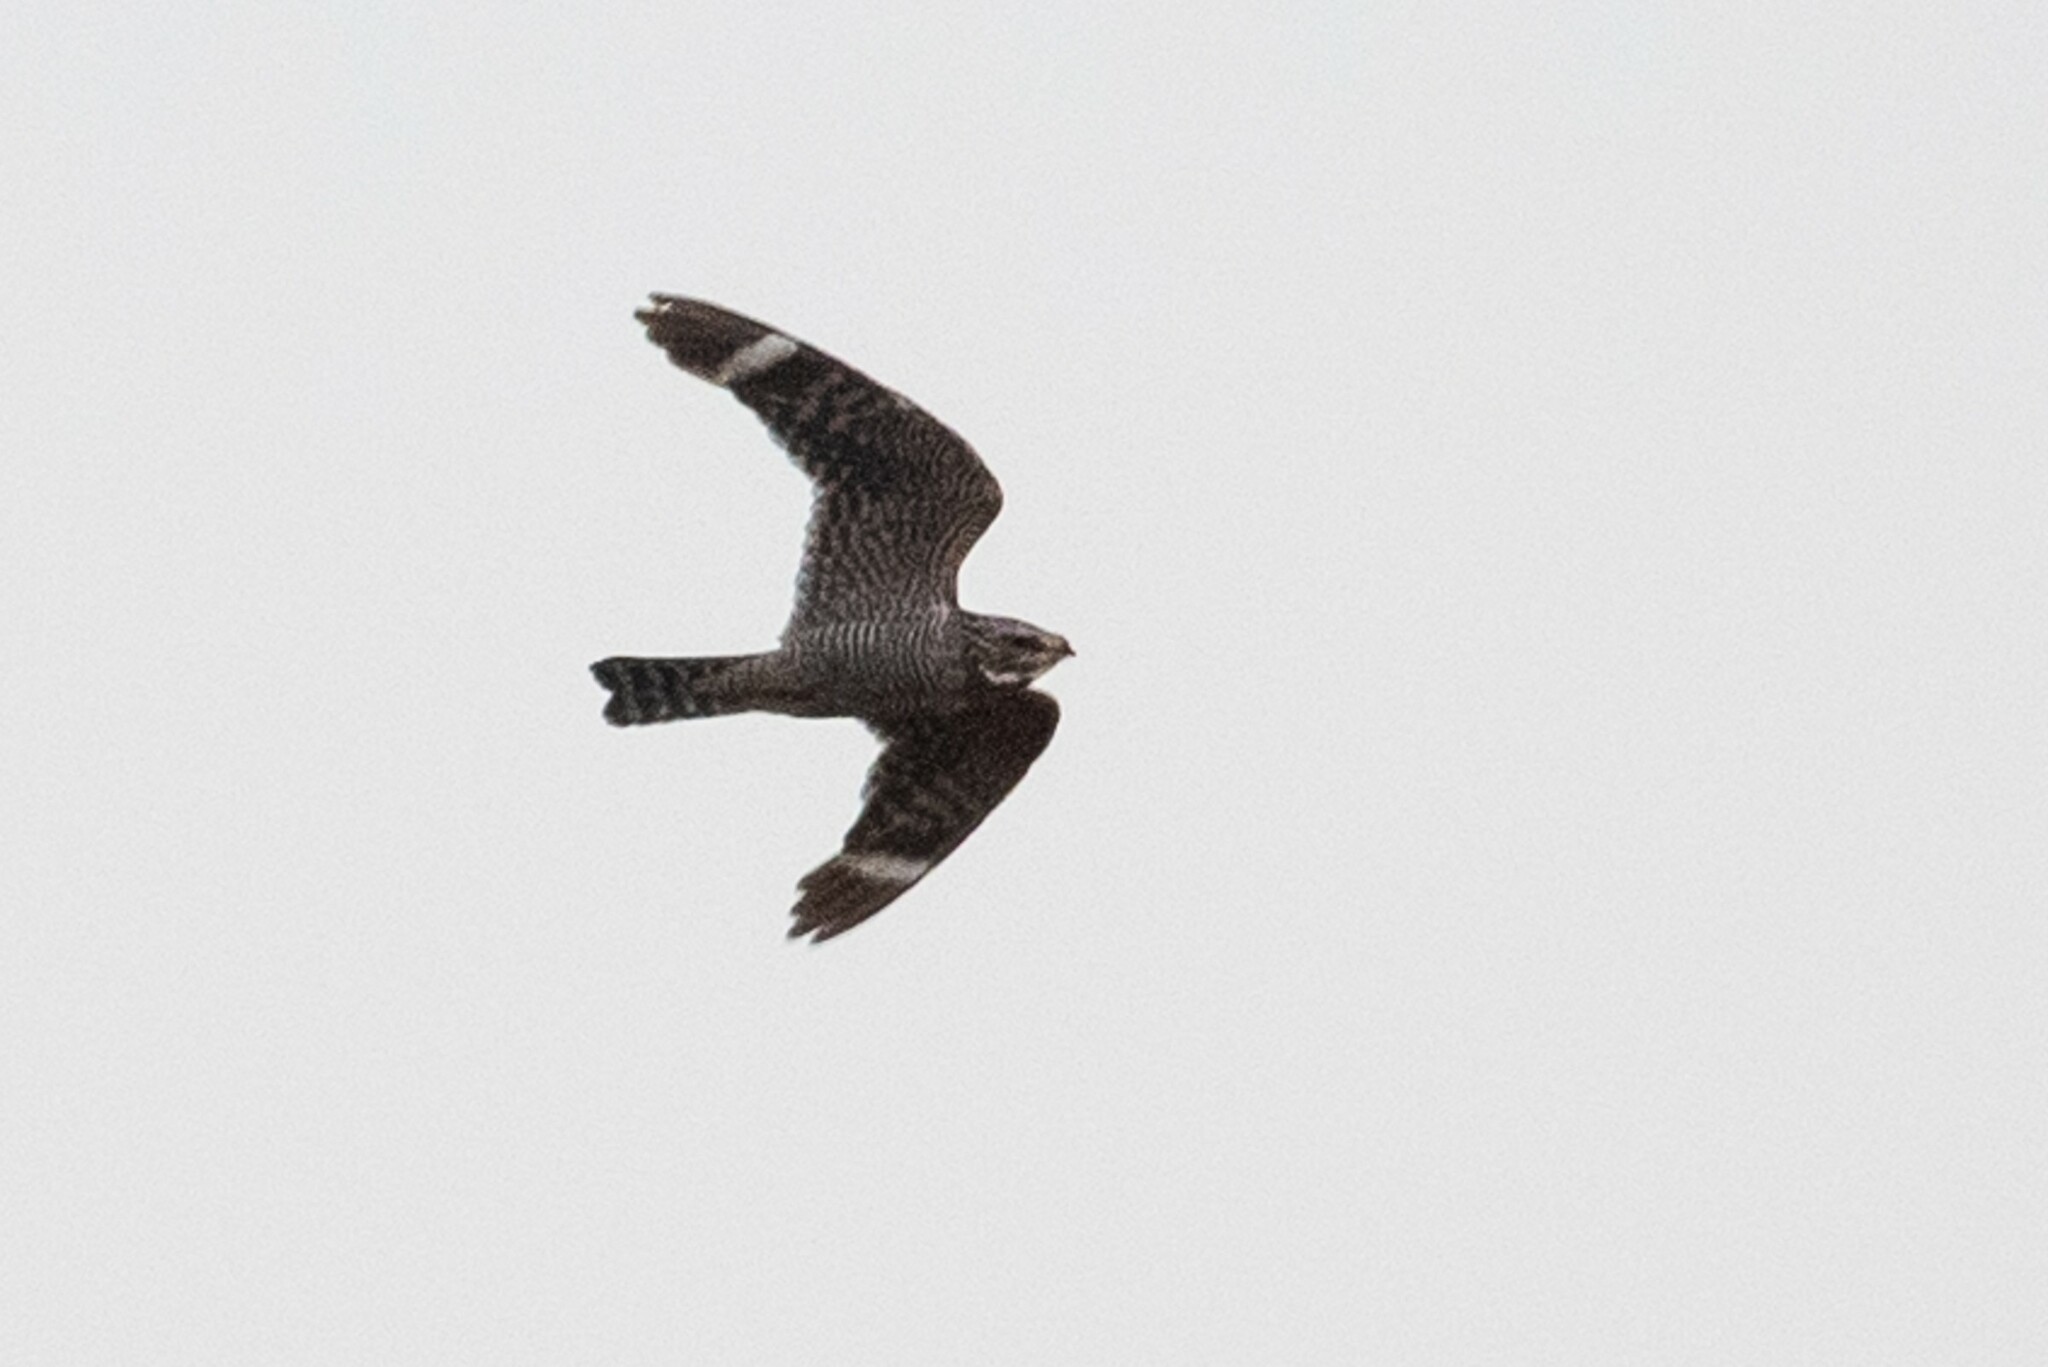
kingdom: Animalia
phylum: Chordata
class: Aves
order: Caprimulgiformes
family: Caprimulgidae
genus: Chordeiles
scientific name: Chordeiles acutipennis
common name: Lesser nighthawk
